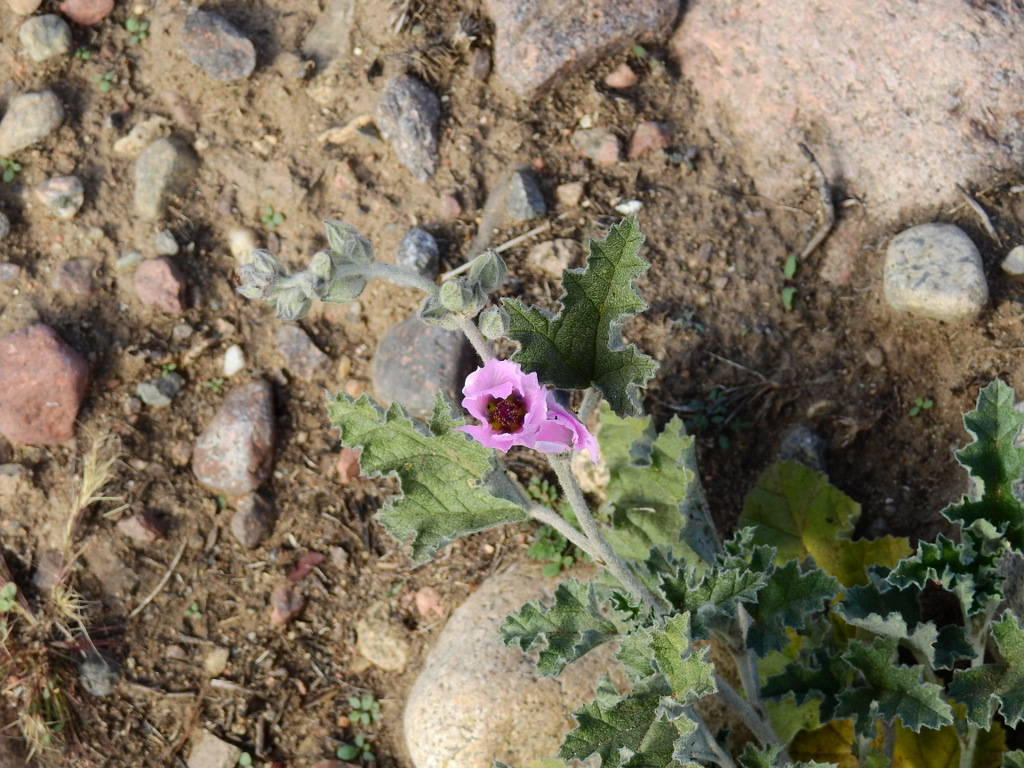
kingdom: Plantae
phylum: Tracheophyta
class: Magnoliopsida
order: Malvales
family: Malvaceae
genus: Sphaeralcea
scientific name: Sphaeralcea mendocina
